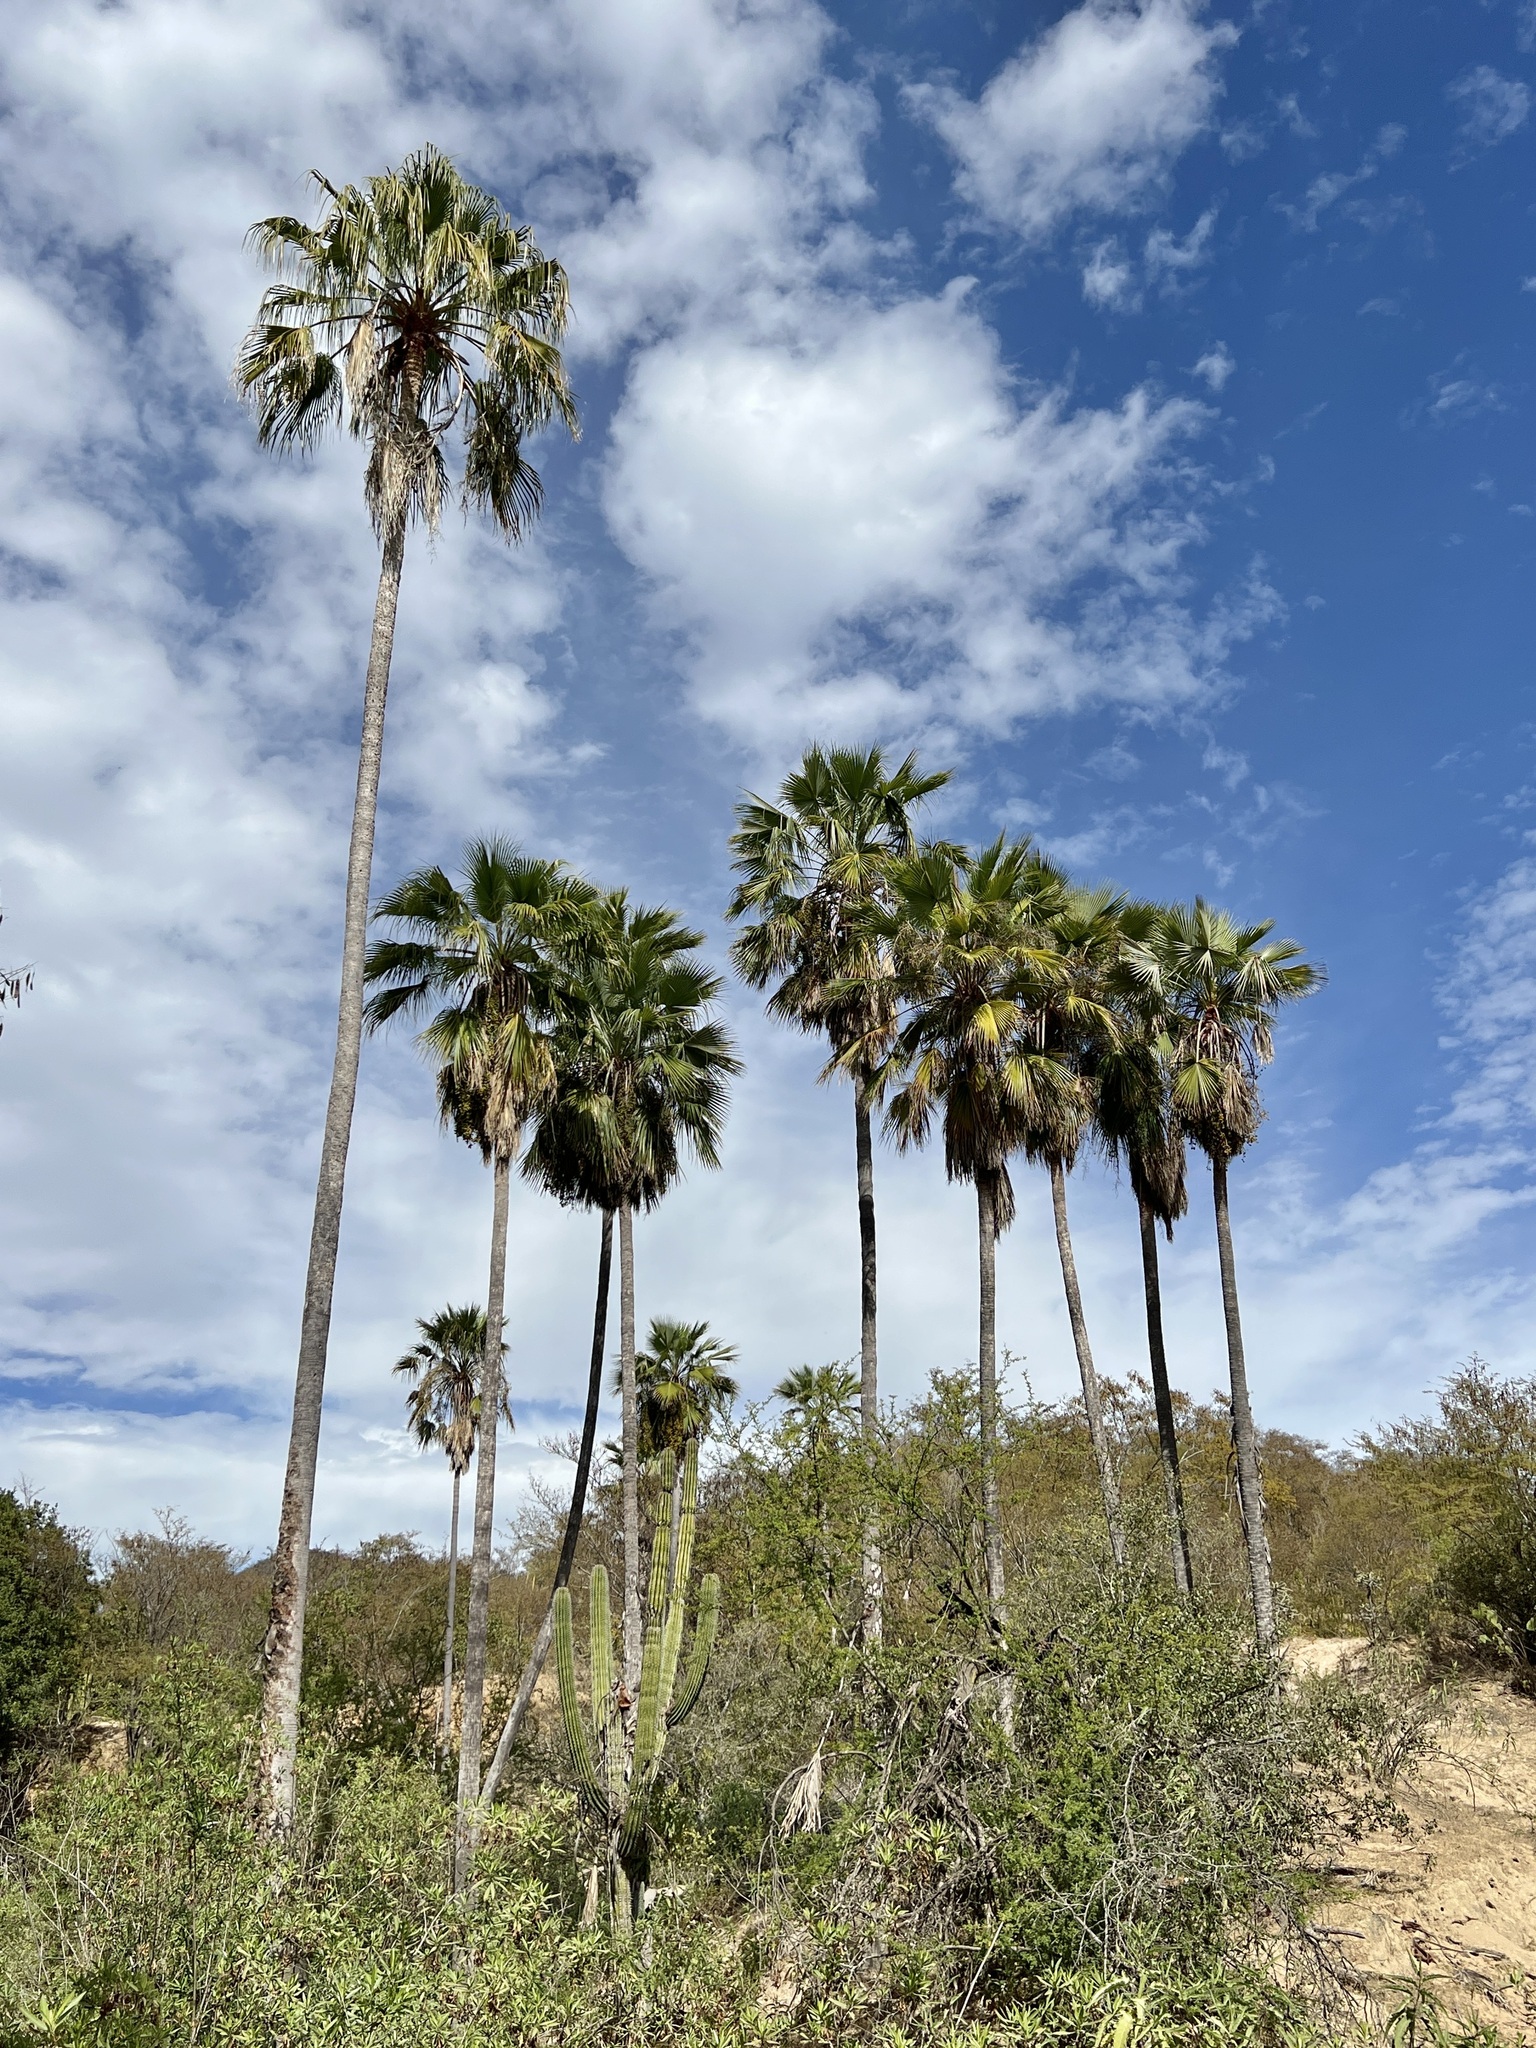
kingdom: Plantae
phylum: Tracheophyta
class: Liliopsida
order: Arecales
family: Arecaceae
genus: Brahea
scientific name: Brahea brandegeei
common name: San jose hesper palm
